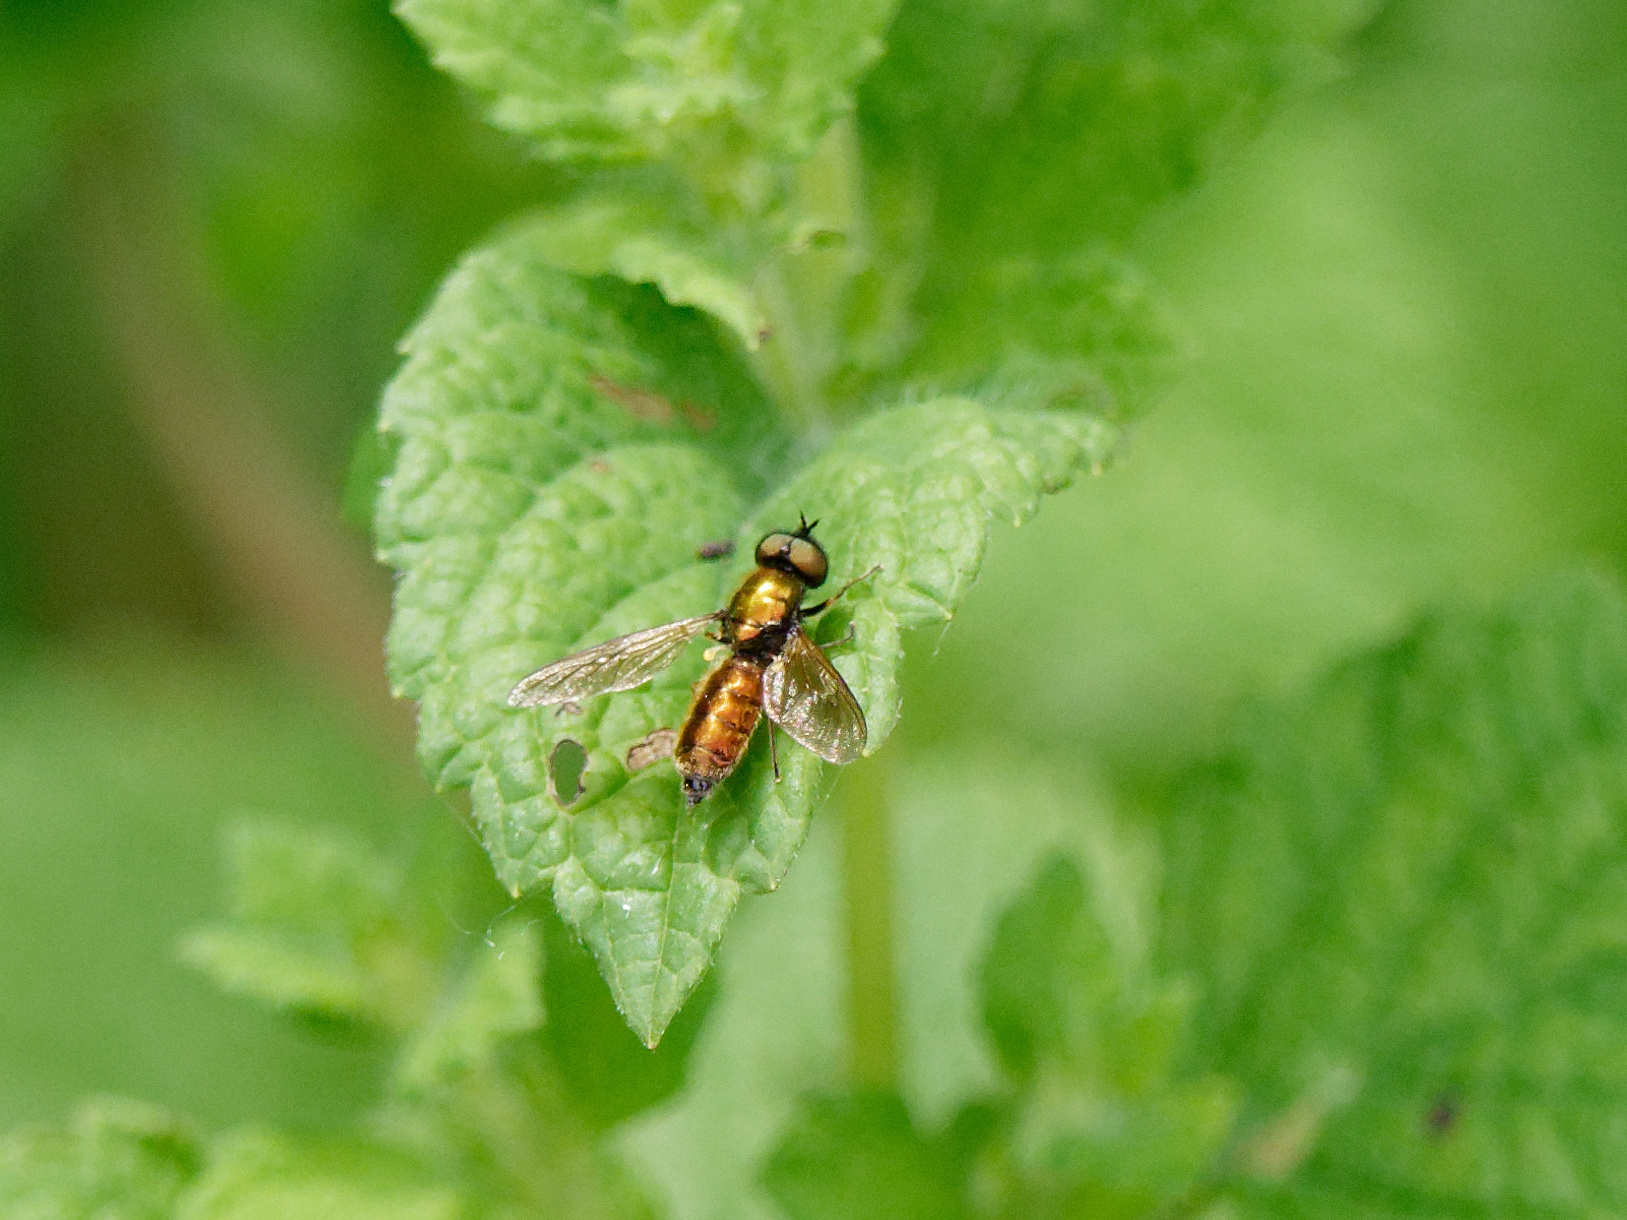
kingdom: Animalia
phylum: Arthropoda
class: Insecta
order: Diptera
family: Stratiomyidae
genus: Chloromyia
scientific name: Chloromyia formosa
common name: Soldier fly
